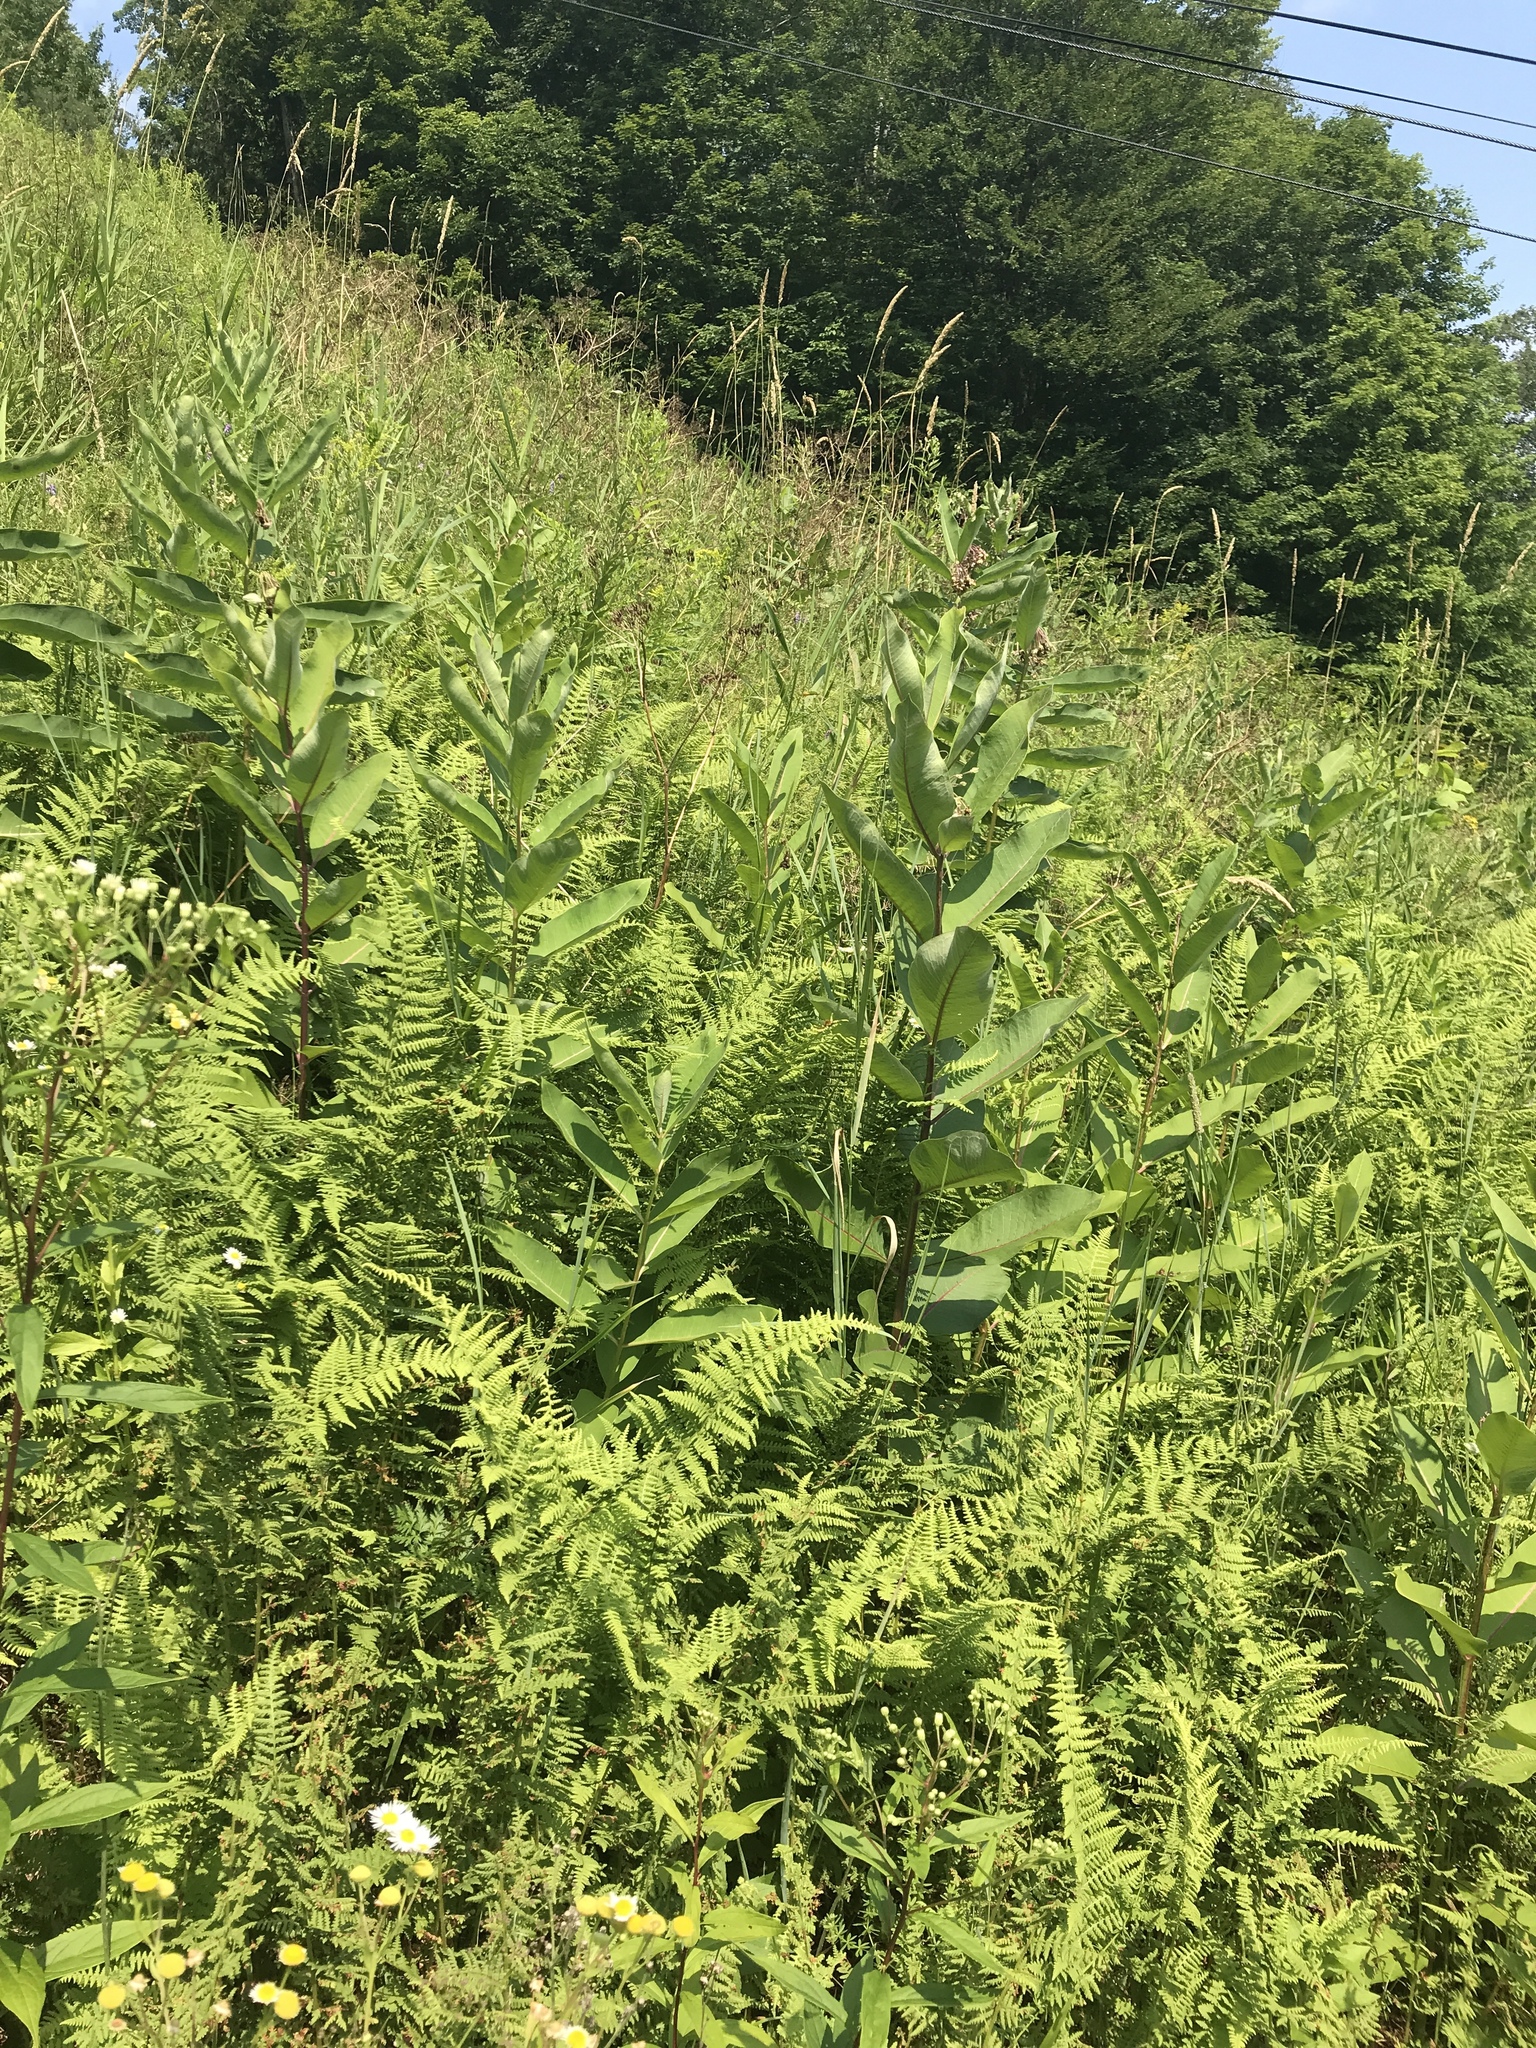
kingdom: Plantae
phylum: Tracheophyta
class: Magnoliopsida
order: Gentianales
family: Apocynaceae
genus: Asclepias
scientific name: Asclepias syriaca
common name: Common milkweed
